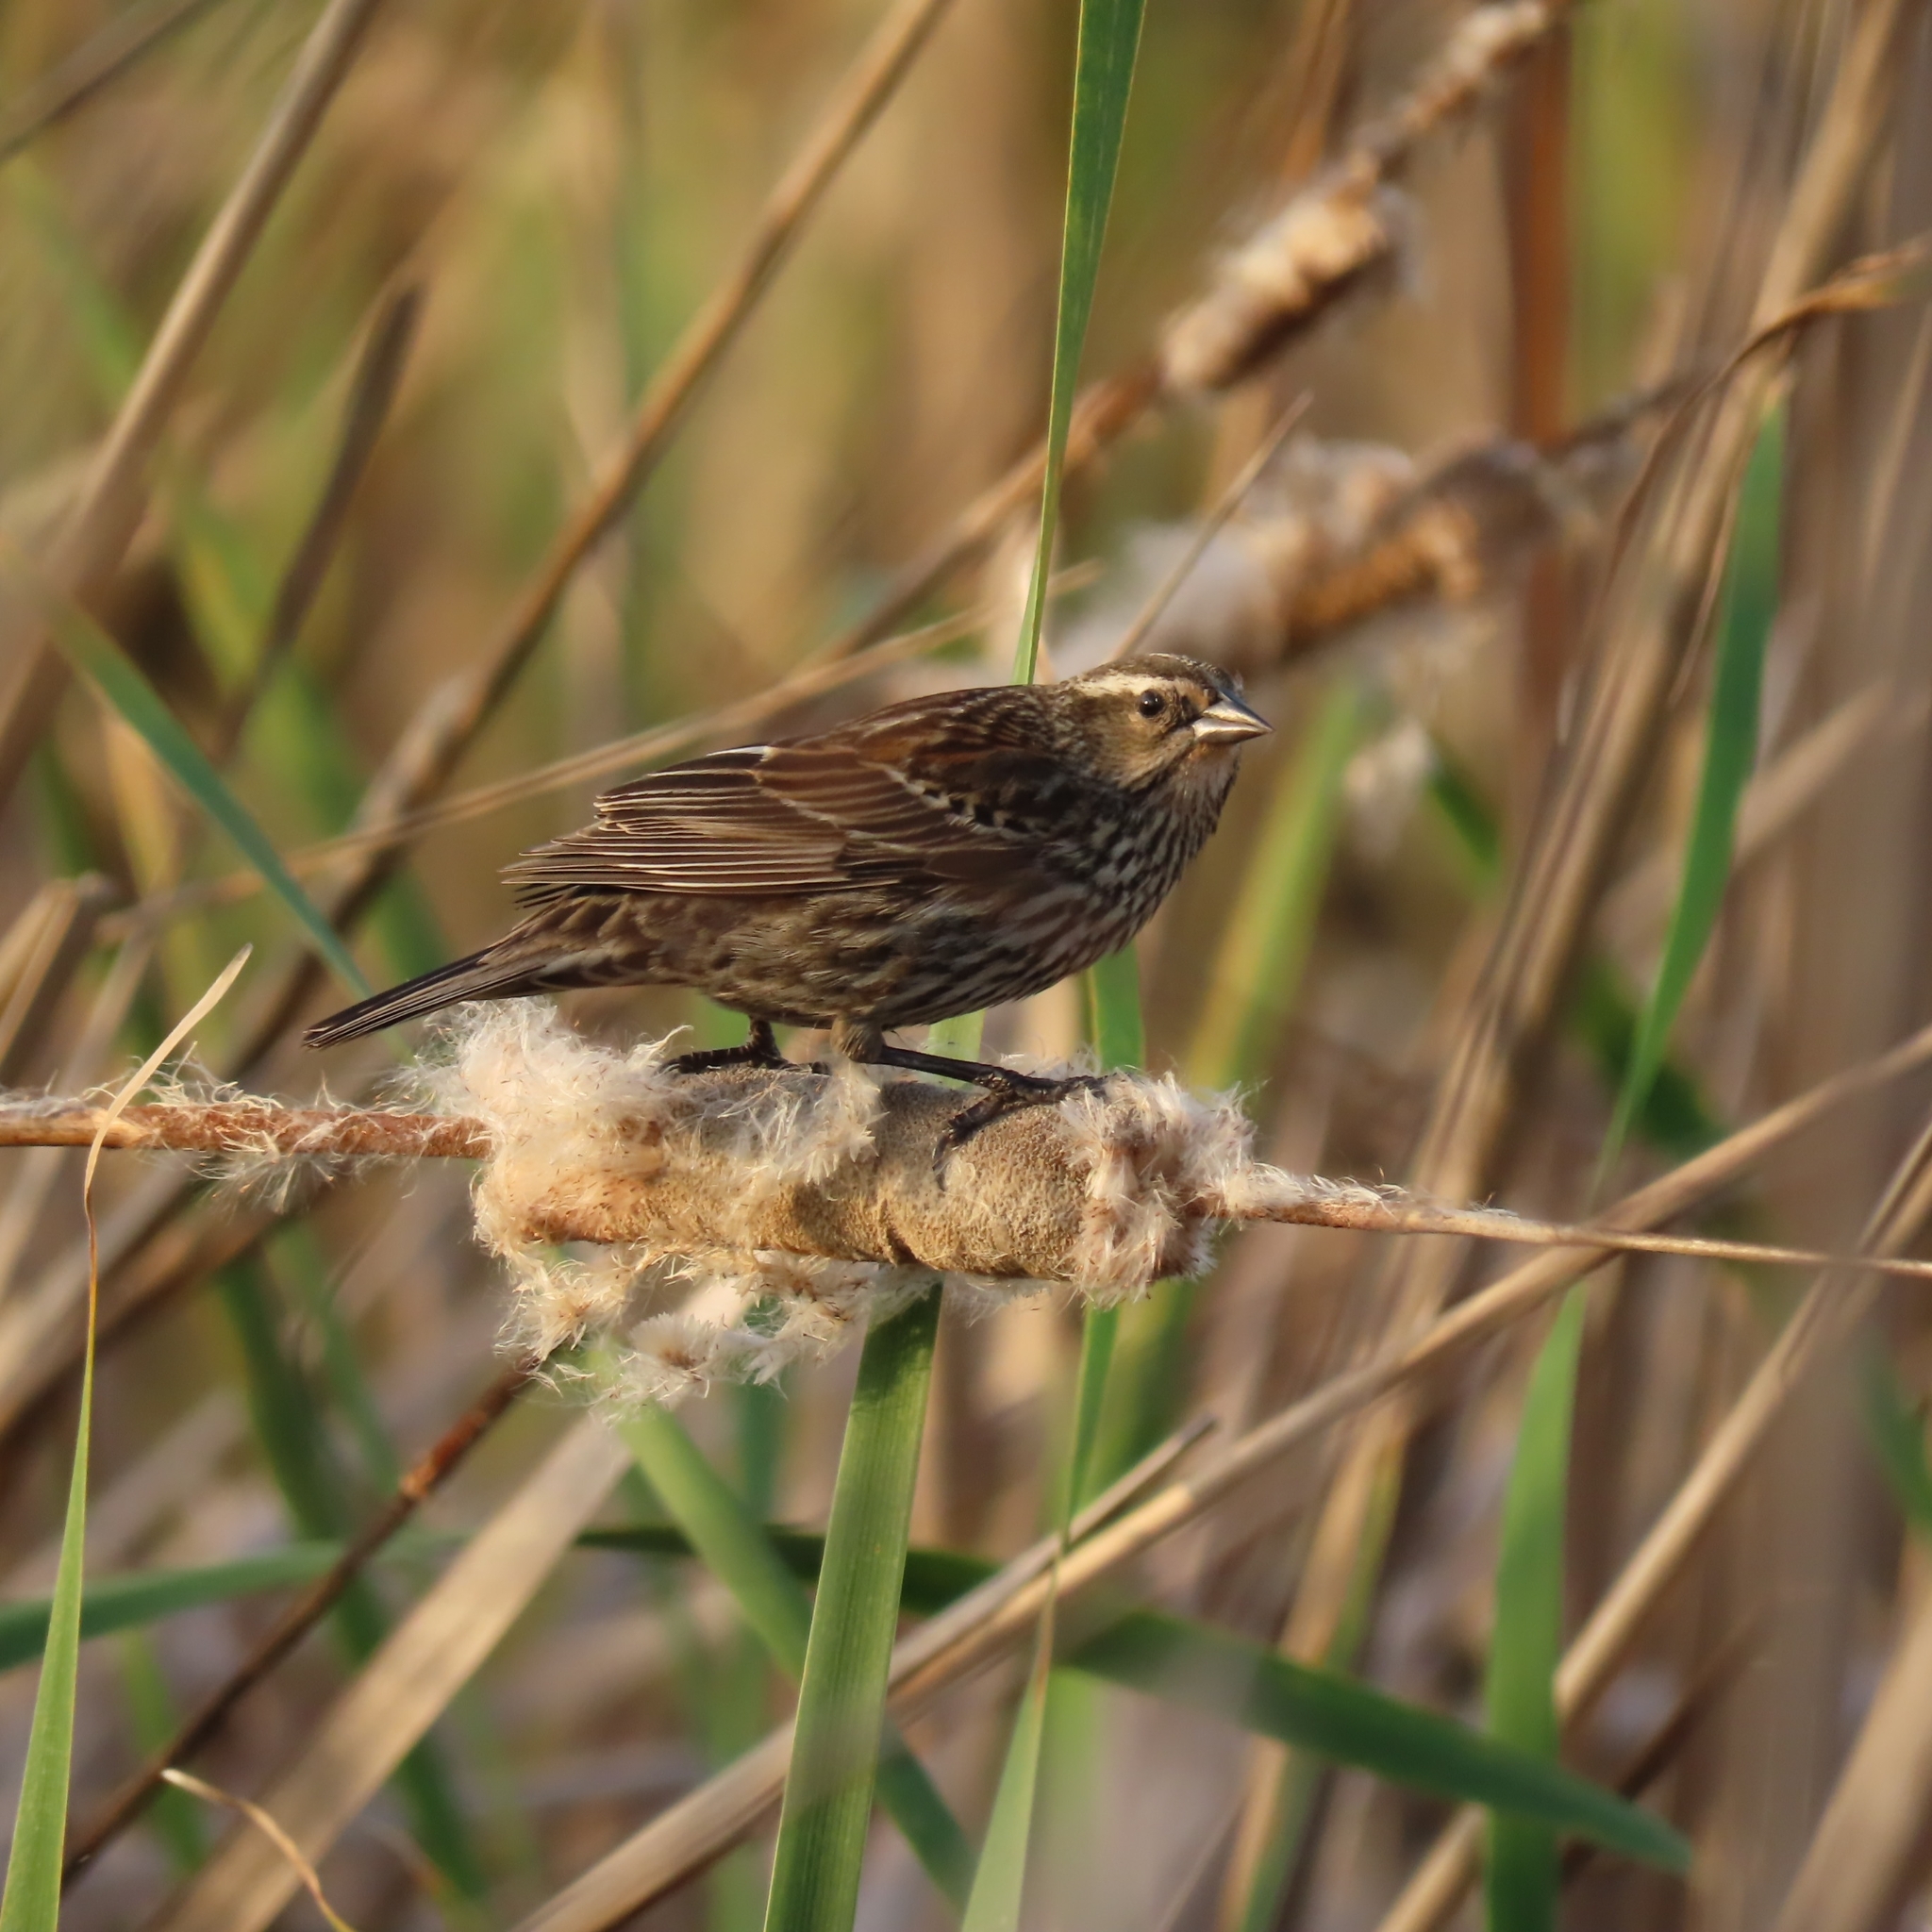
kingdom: Animalia
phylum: Chordata
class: Aves
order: Passeriformes
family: Icteridae
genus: Agelaius
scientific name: Agelaius phoeniceus
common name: Red-winged blackbird
